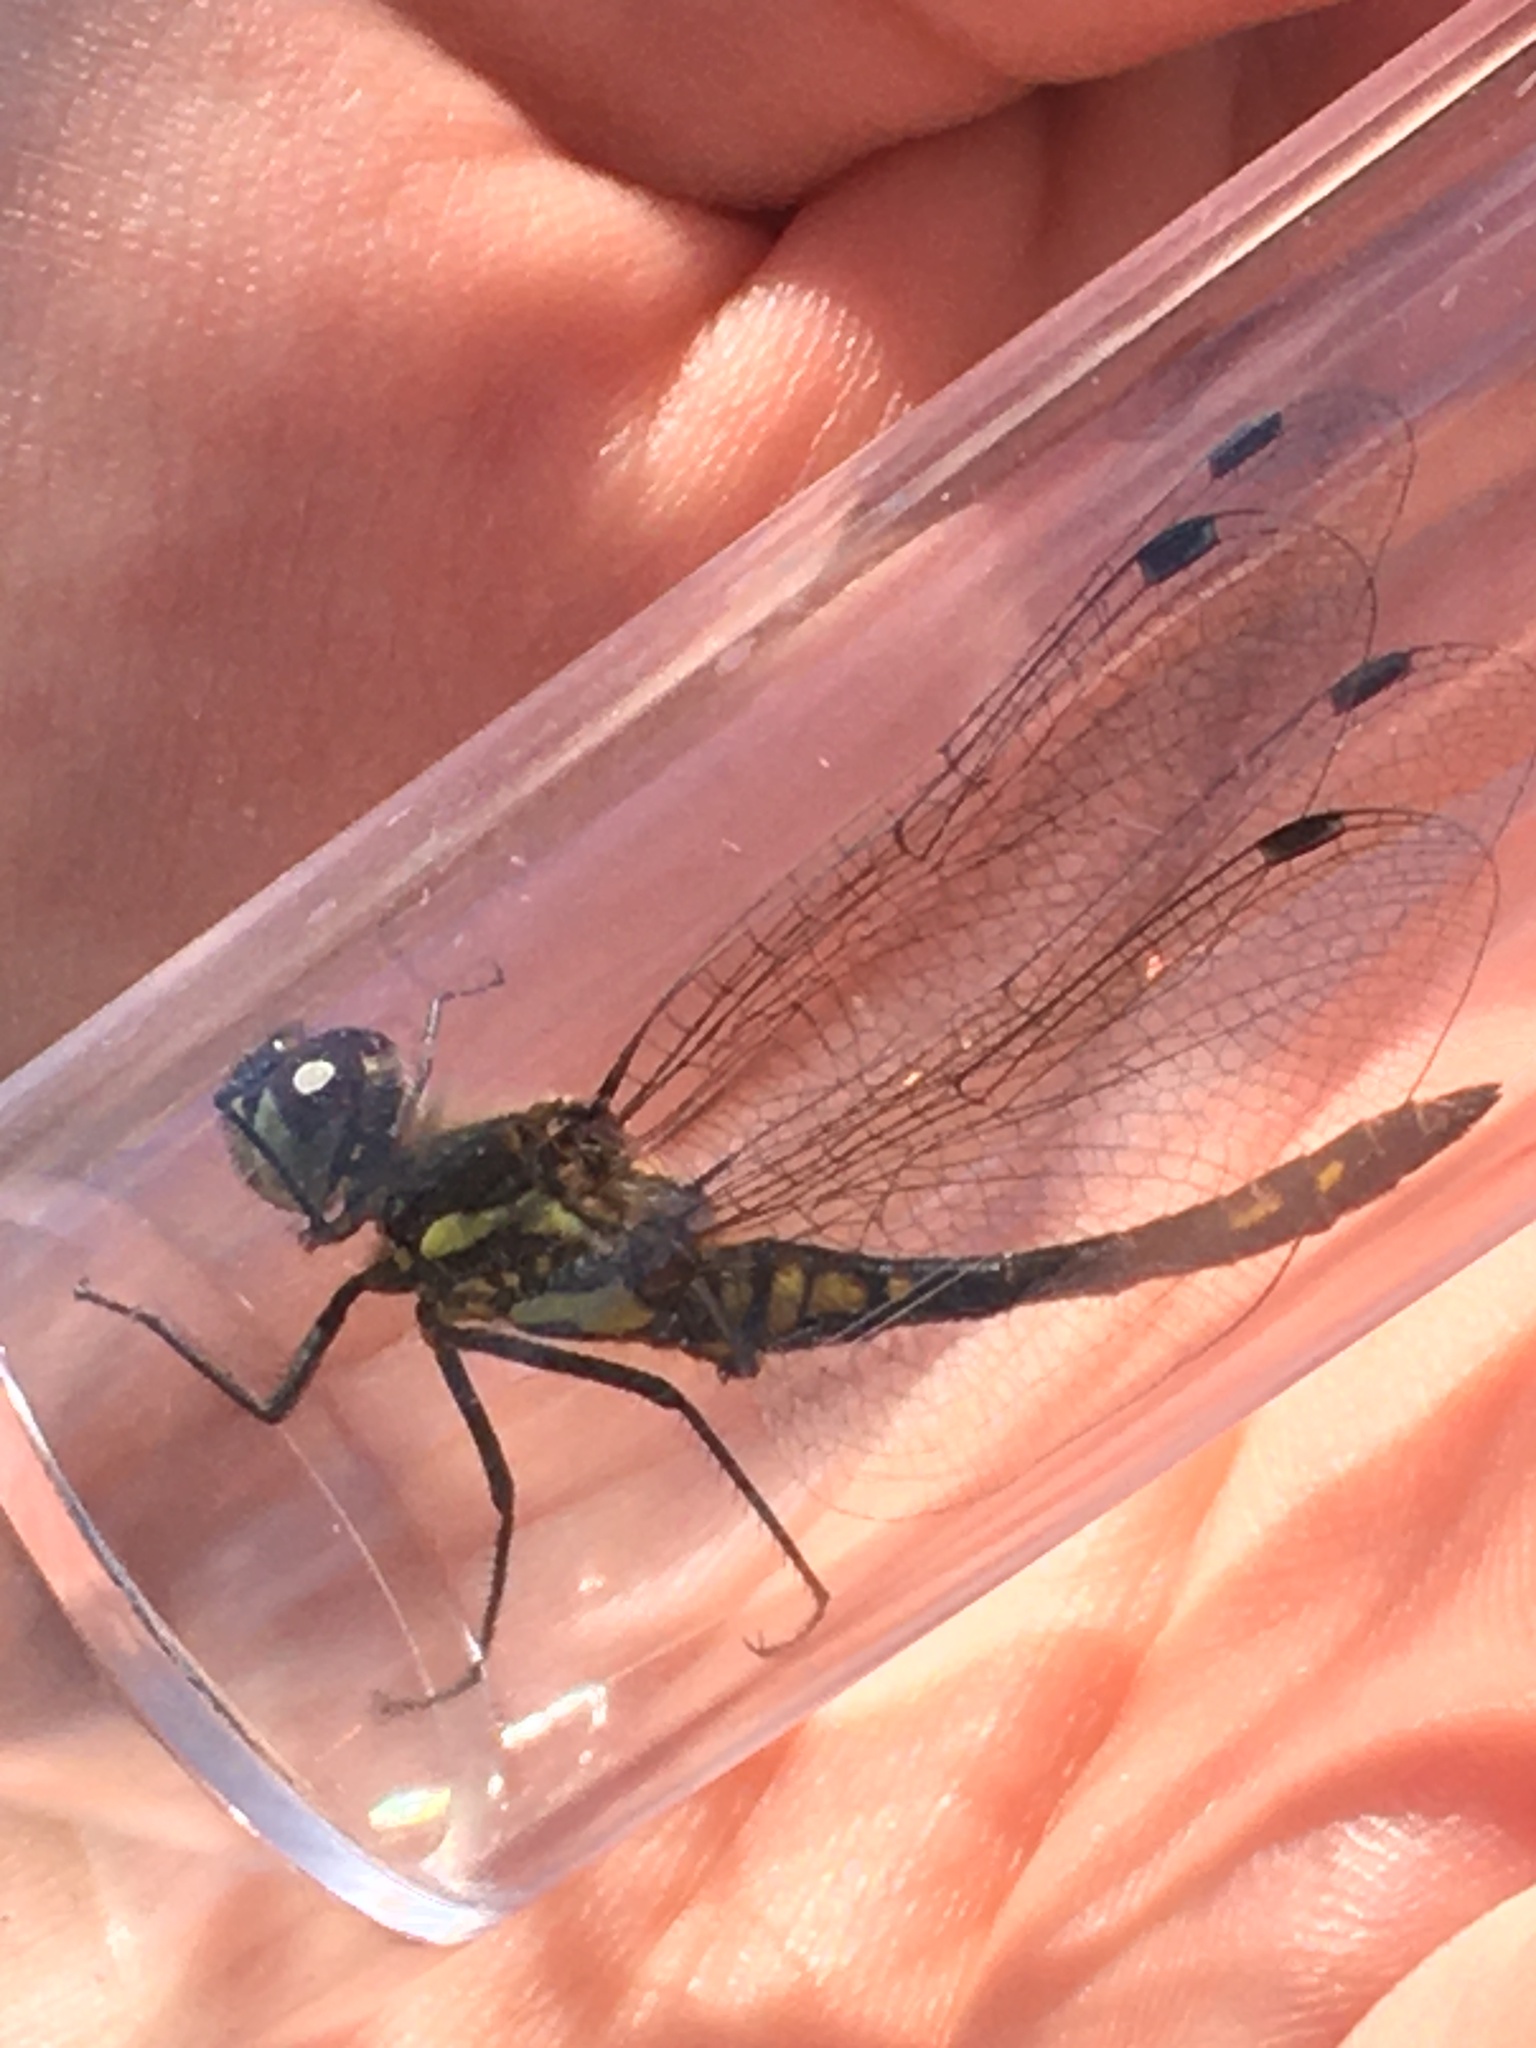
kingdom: Animalia
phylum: Arthropoda
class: Insecta
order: Odonata
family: Libellulidae
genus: Sympetrum
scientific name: Sympetrum danae
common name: Black darter
